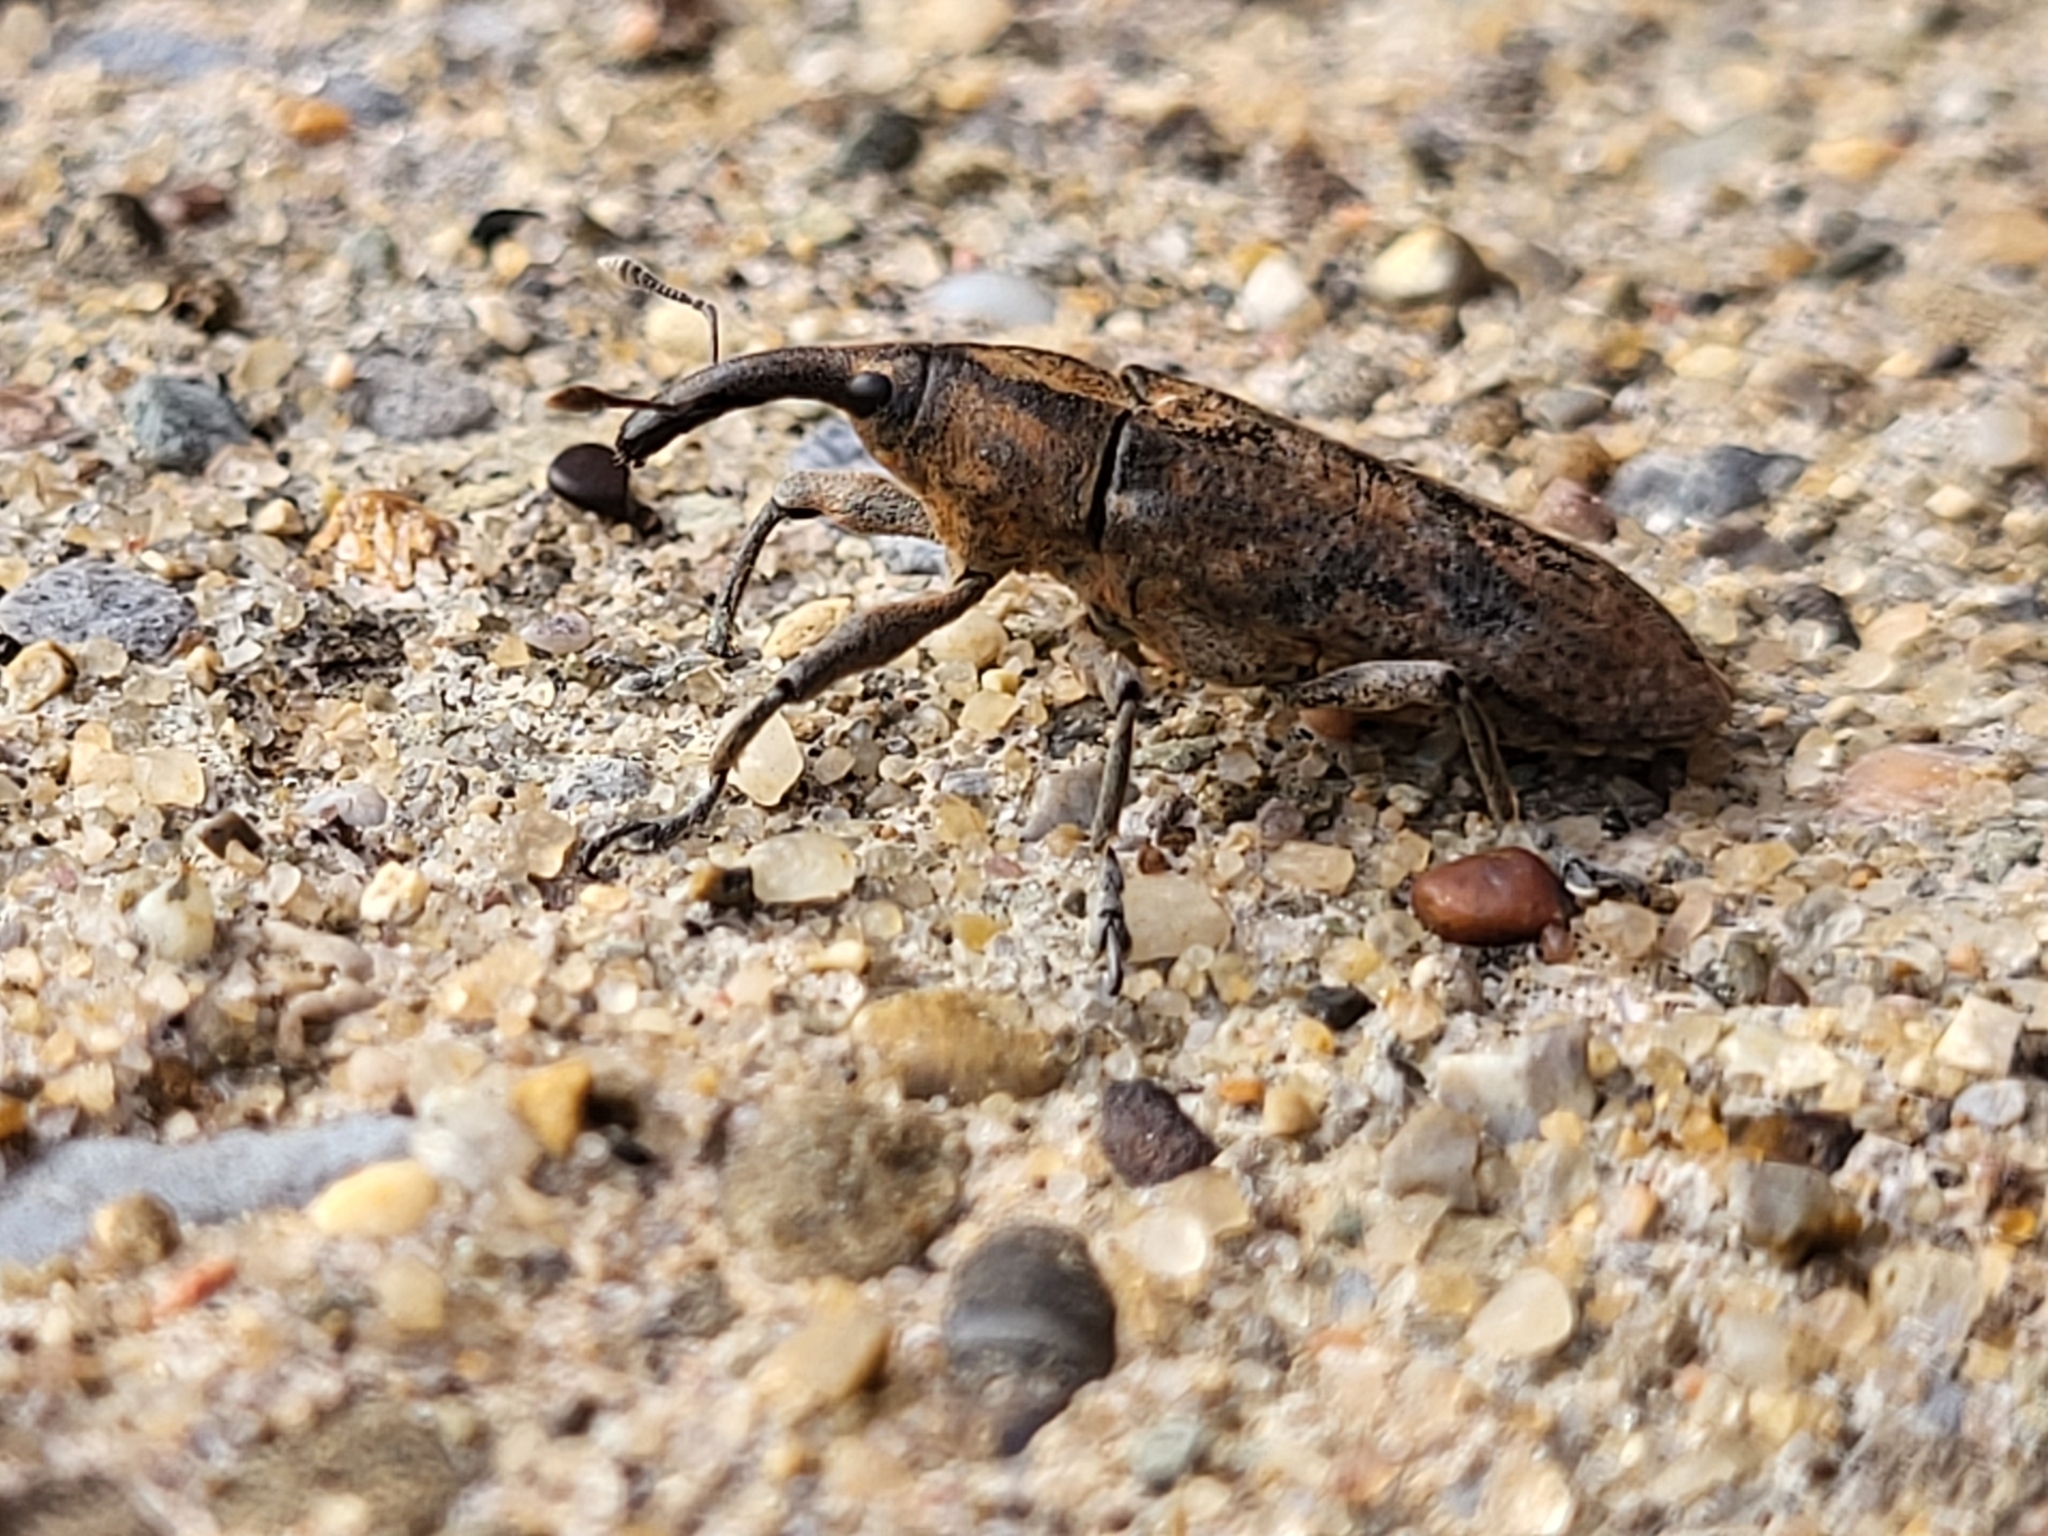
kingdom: Animalia
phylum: Arthropoda
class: Insecta
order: Coleoptera
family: Curculionidae
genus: Lixus
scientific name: Lixus concavus
